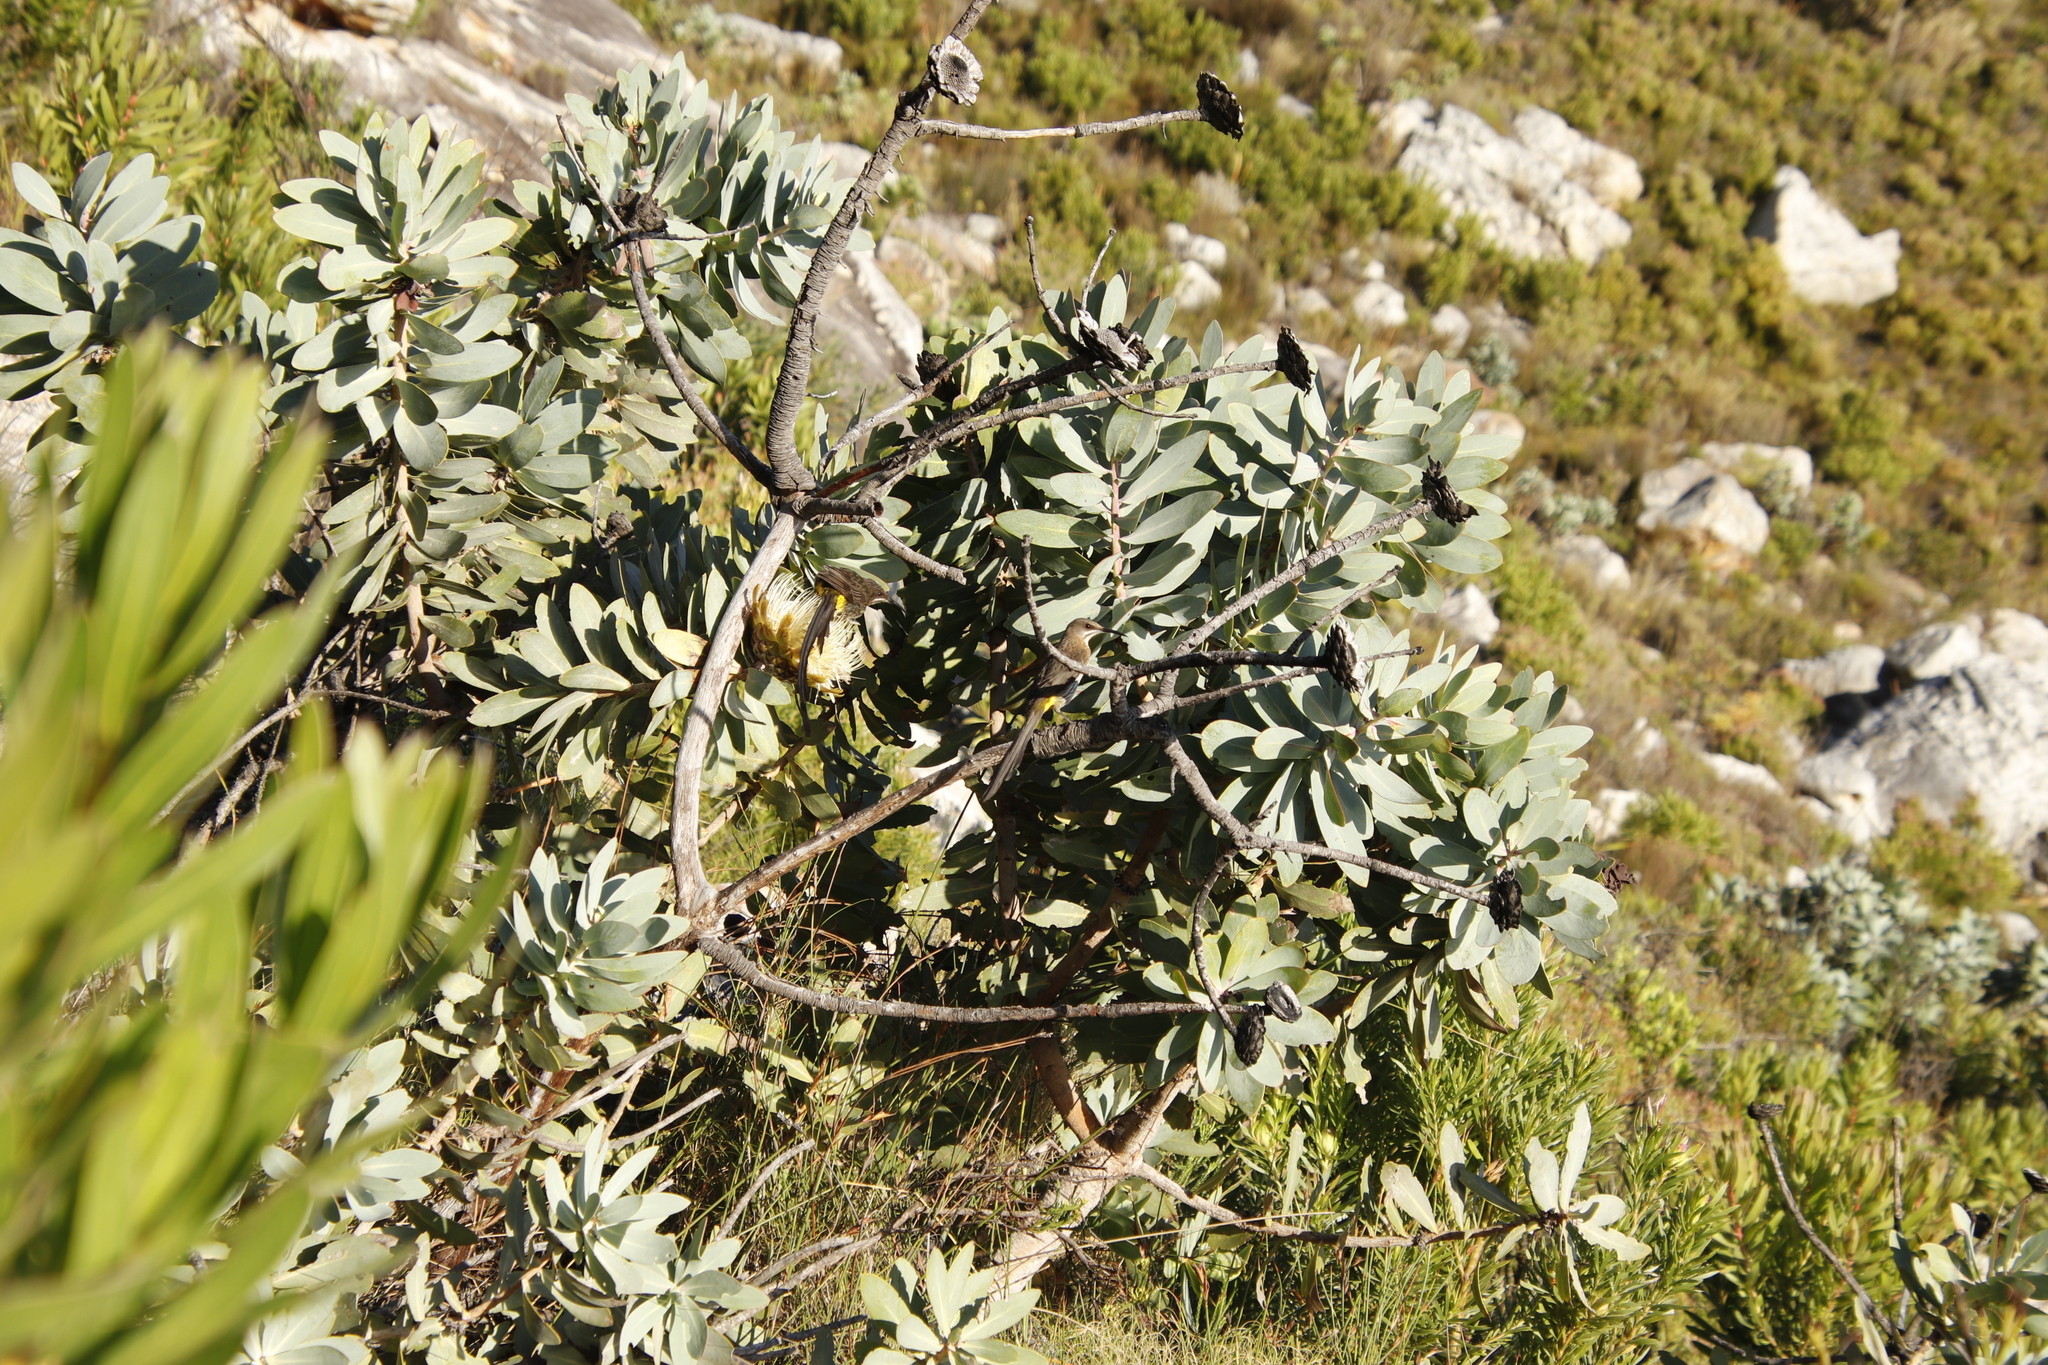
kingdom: Plantae
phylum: Tracheophyta
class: Magnoliopsida
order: Proteales
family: Proteaceae
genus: Protea
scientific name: Protea nitida
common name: Tree protea
